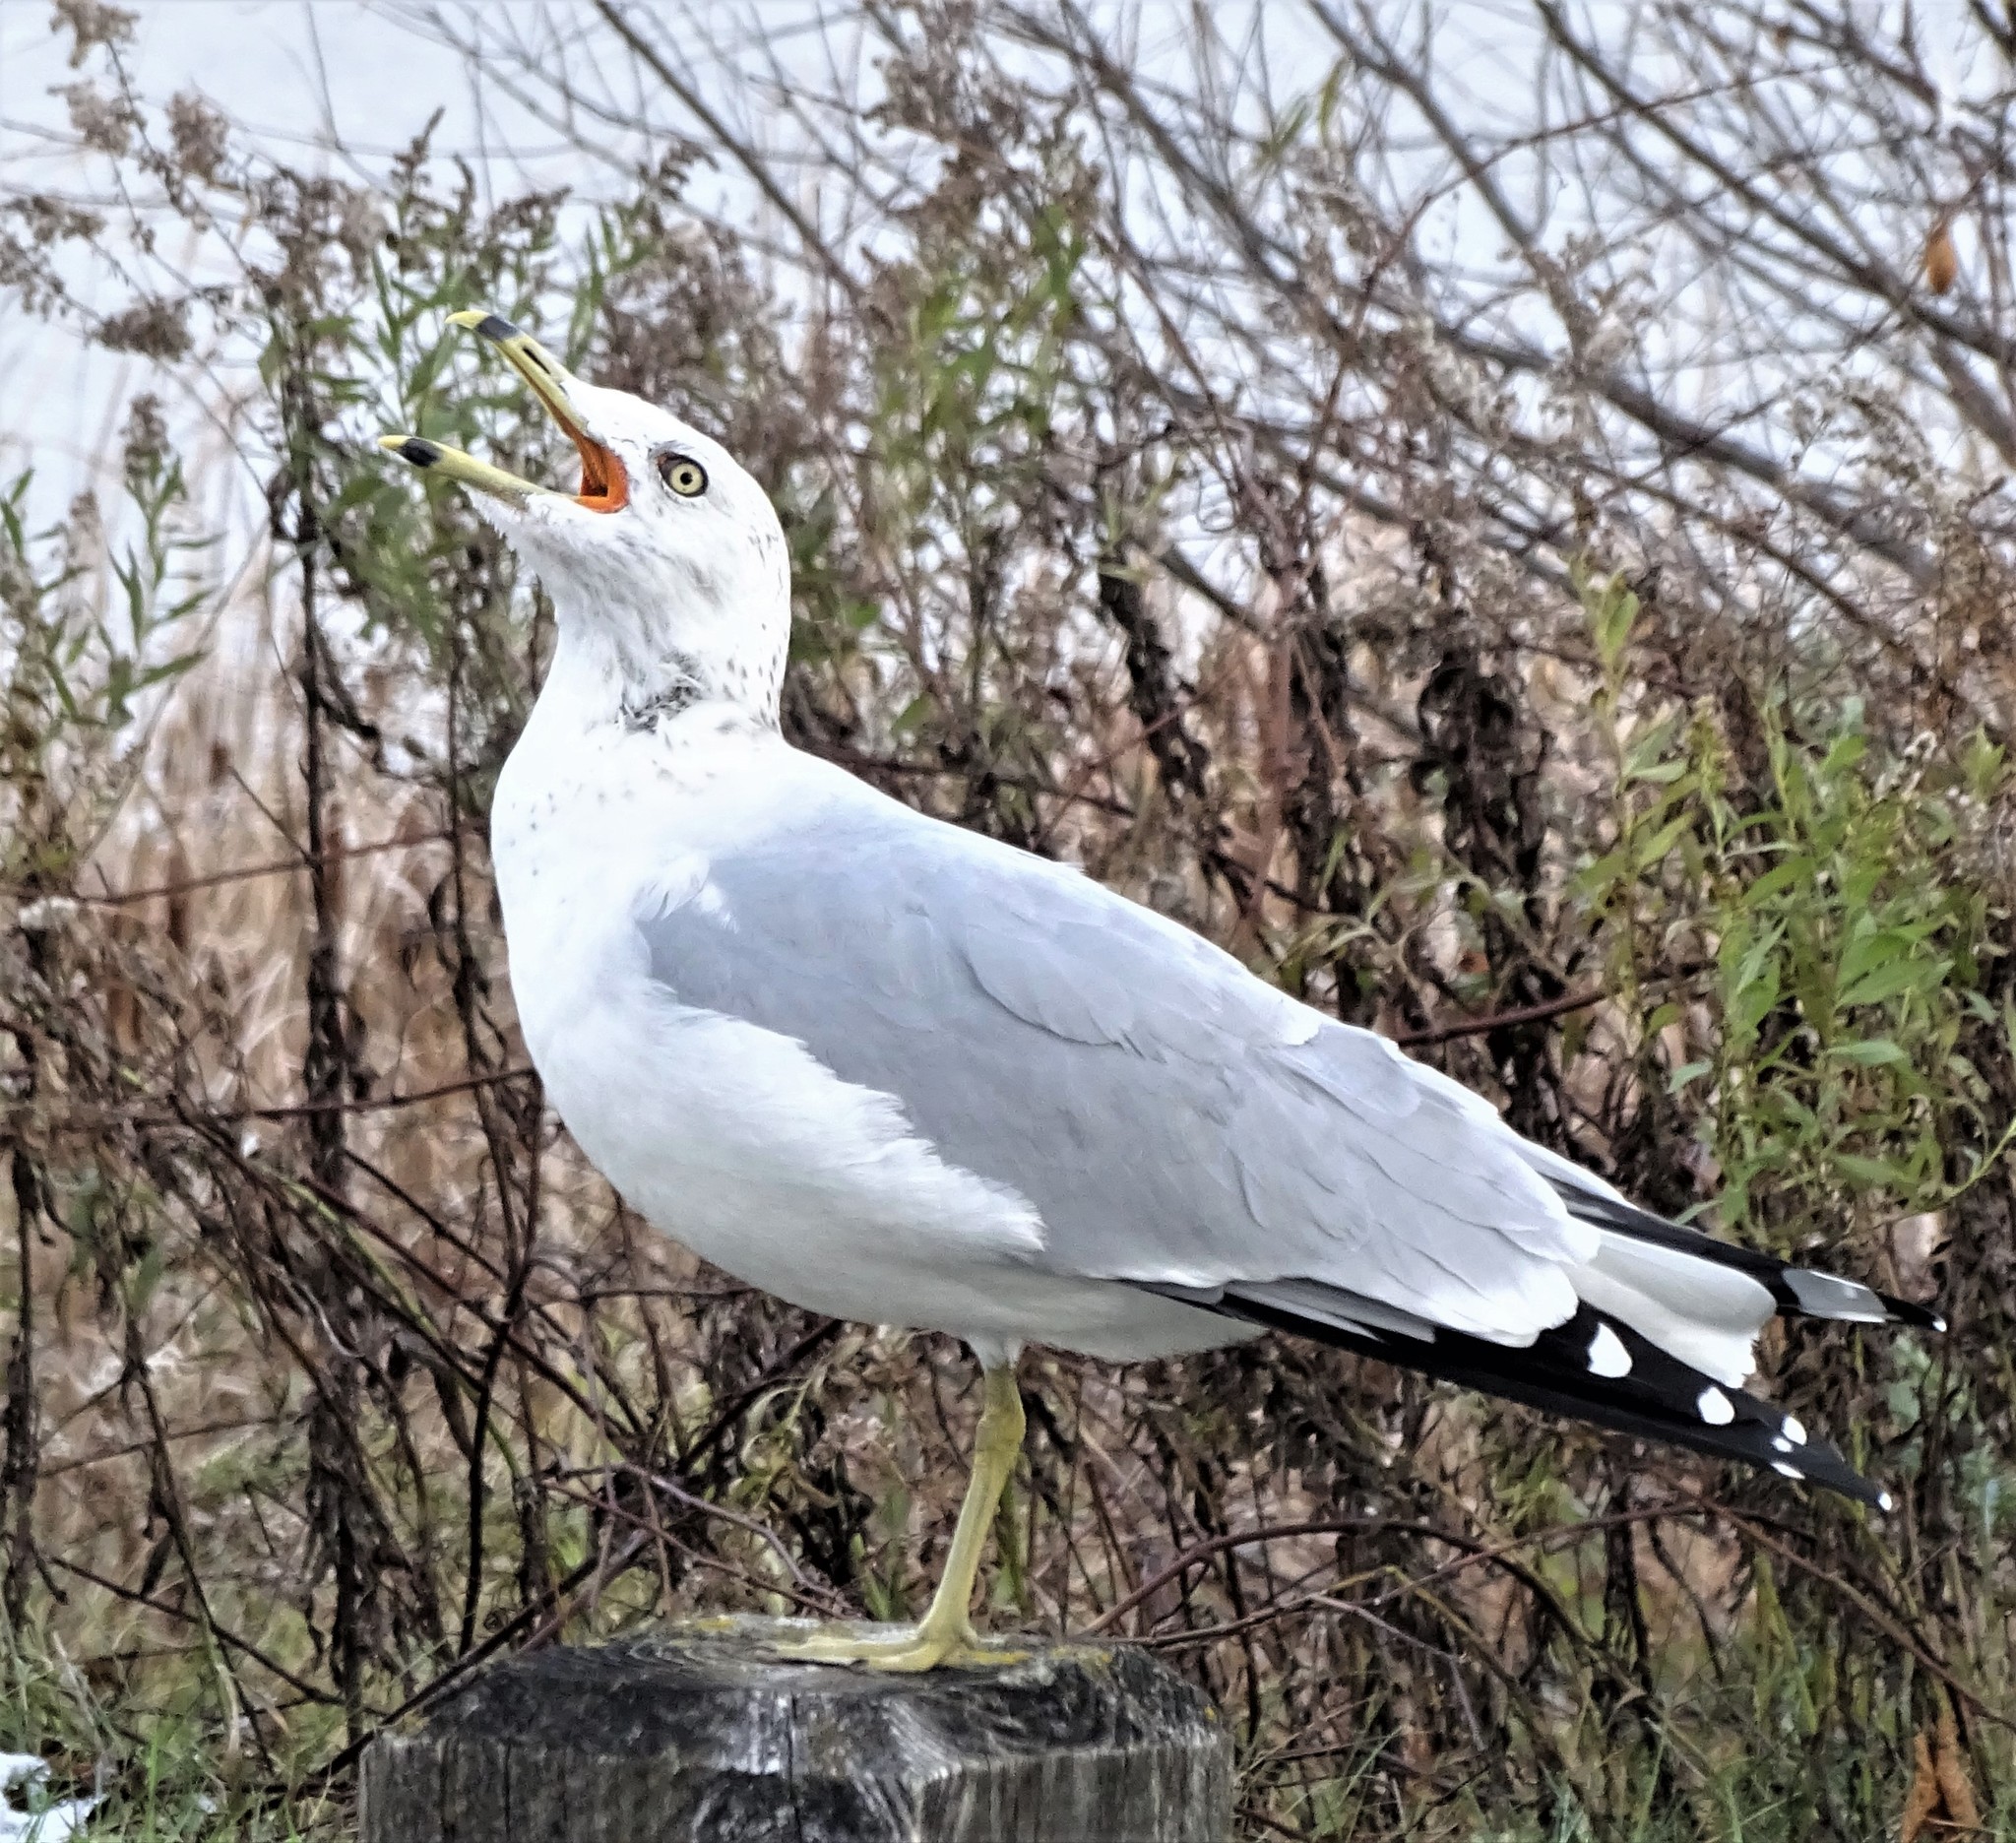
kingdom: Animalia
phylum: Chordata
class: Aves
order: Charadriiformes
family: Laridae
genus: Larus
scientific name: Larus delawarensis
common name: Ring-billed gull
